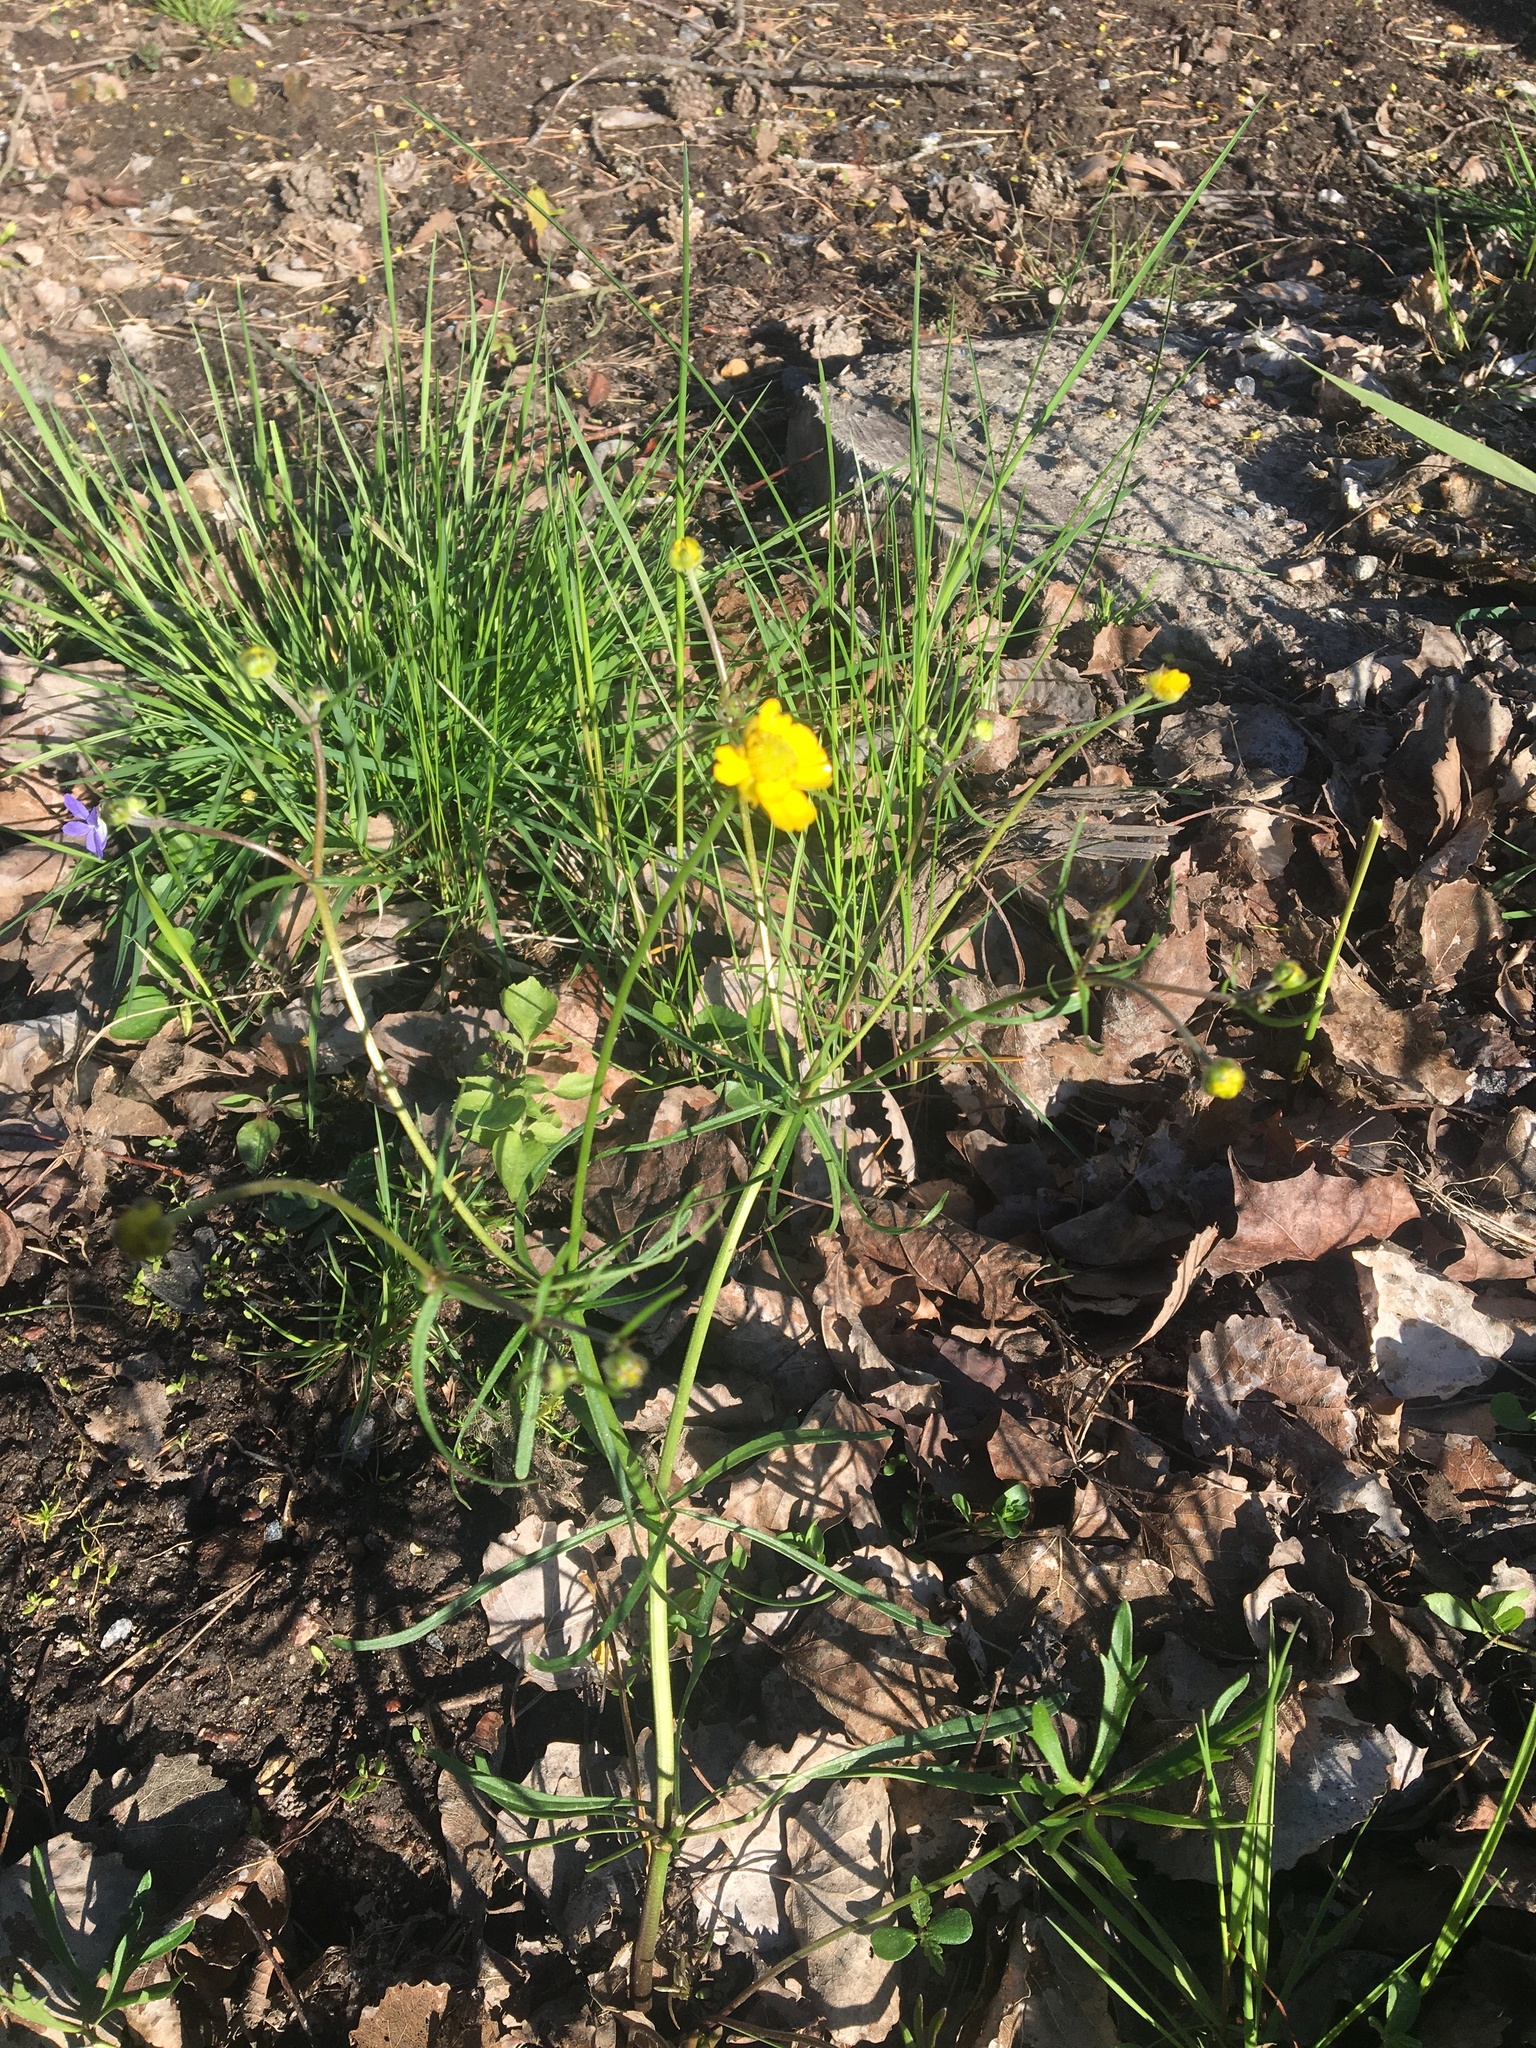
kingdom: Plantae
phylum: Tracheophyta
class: Magnoliopsida
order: Ranunculales
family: Ranunculaceae
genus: Ranunculus
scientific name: Ranunculus auricomus
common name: Goldilocks buttercup
